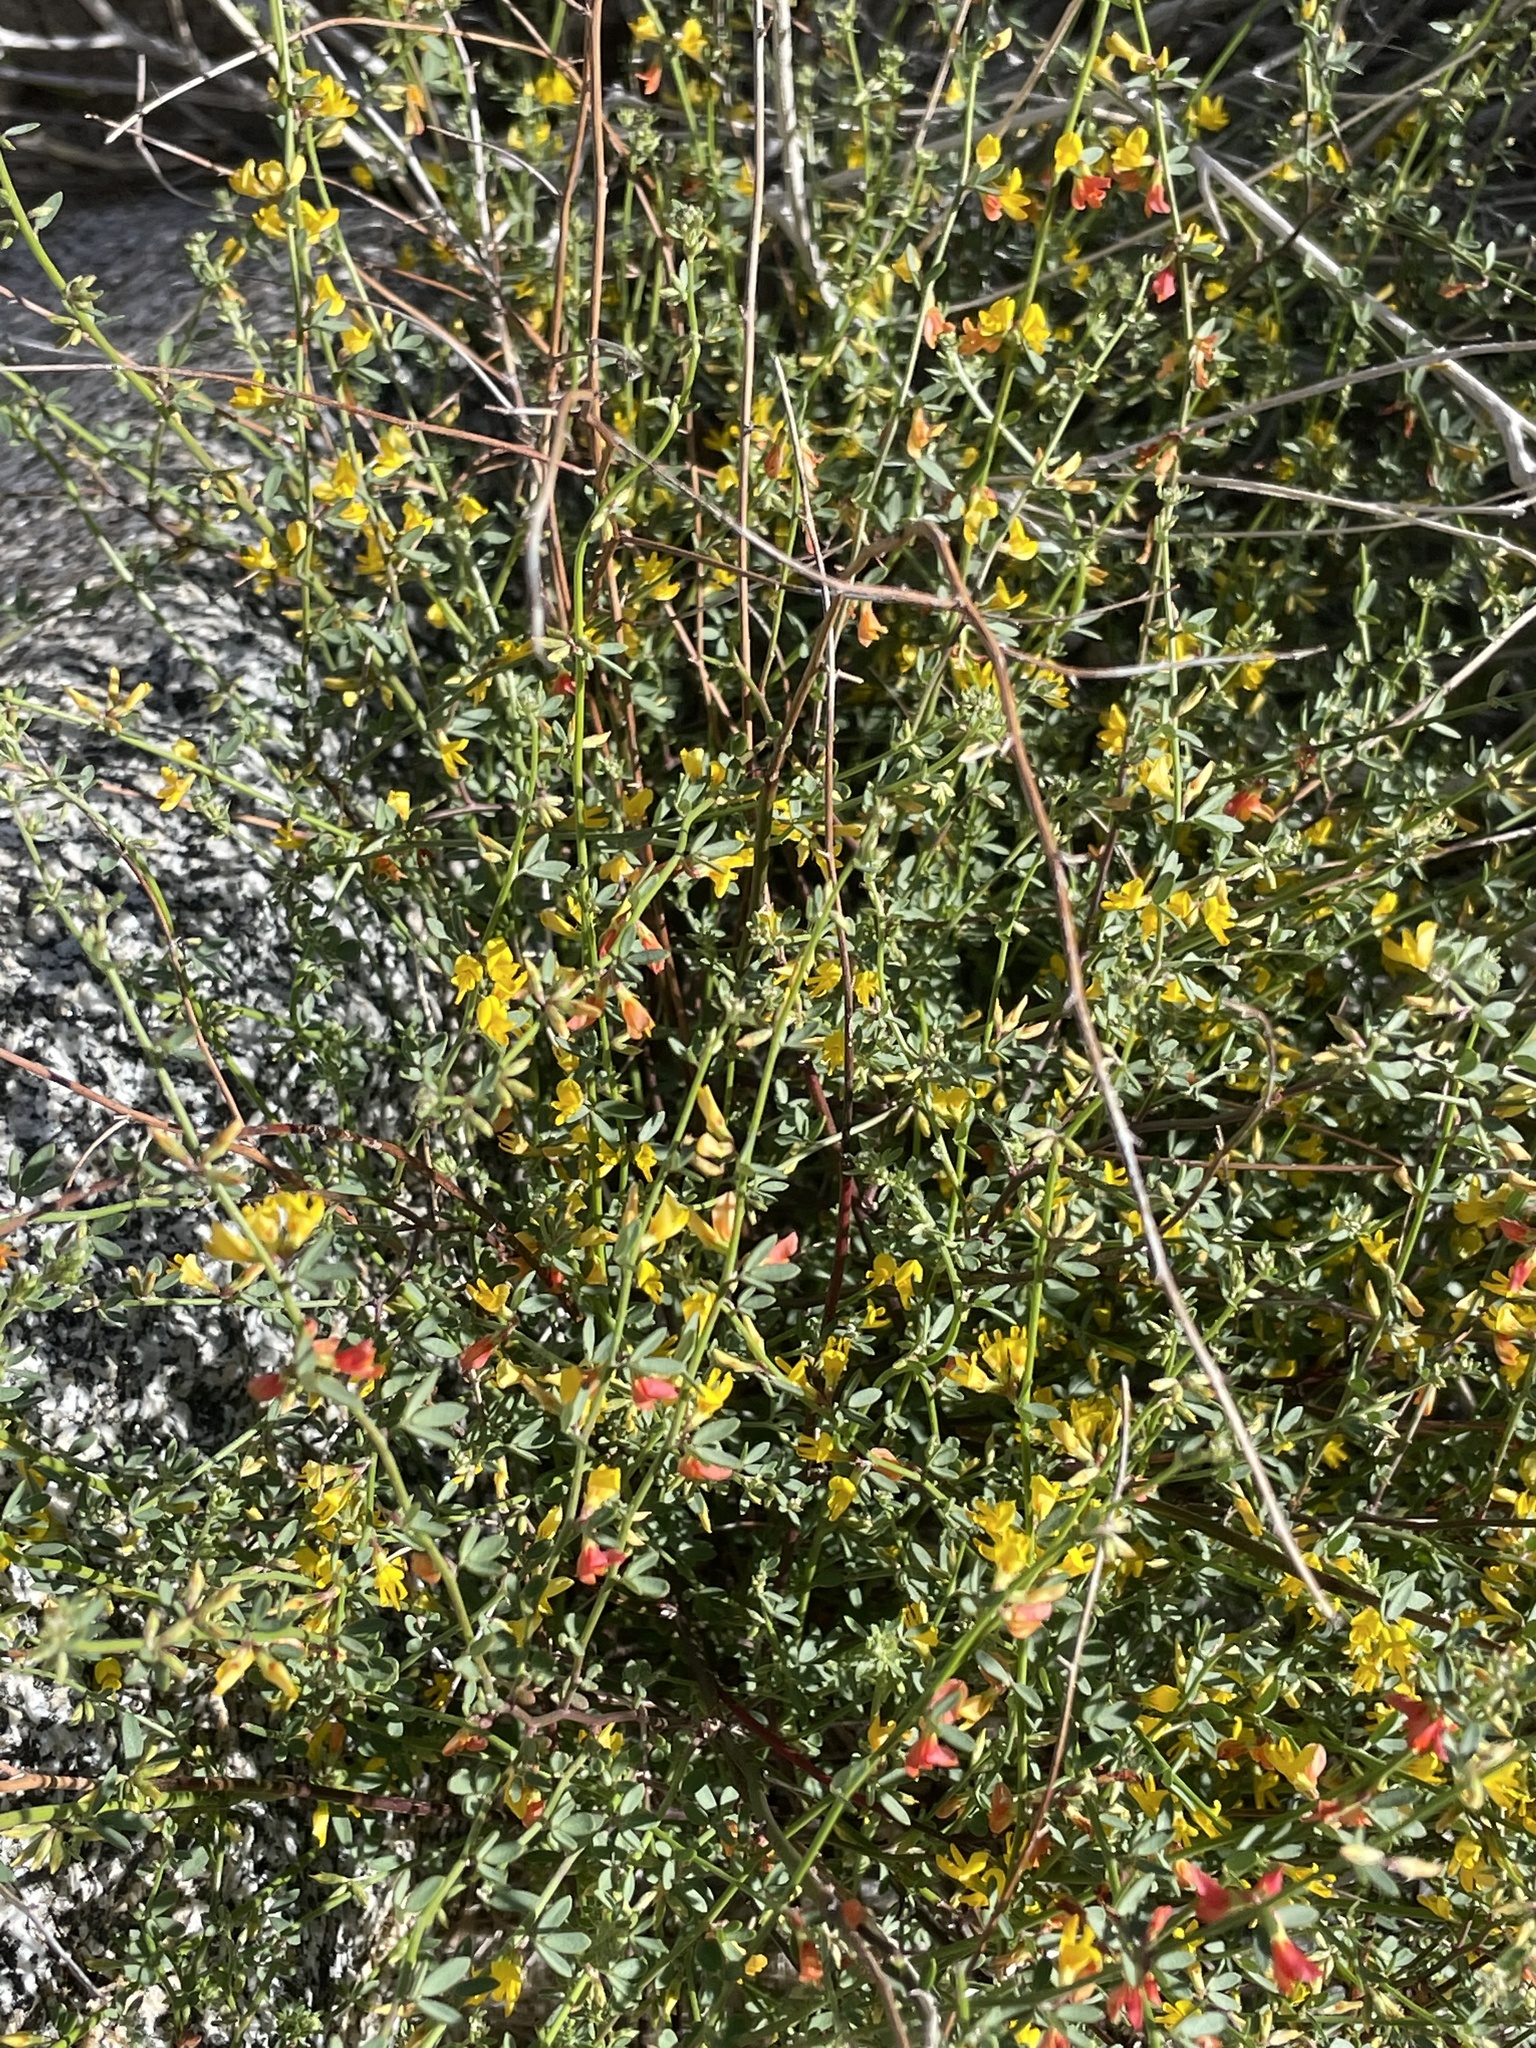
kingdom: Plantae
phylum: Tracheophyta
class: Magnoliopsida
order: Fabales
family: Fabaceae
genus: Acmispon
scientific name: Acmispon glaber
